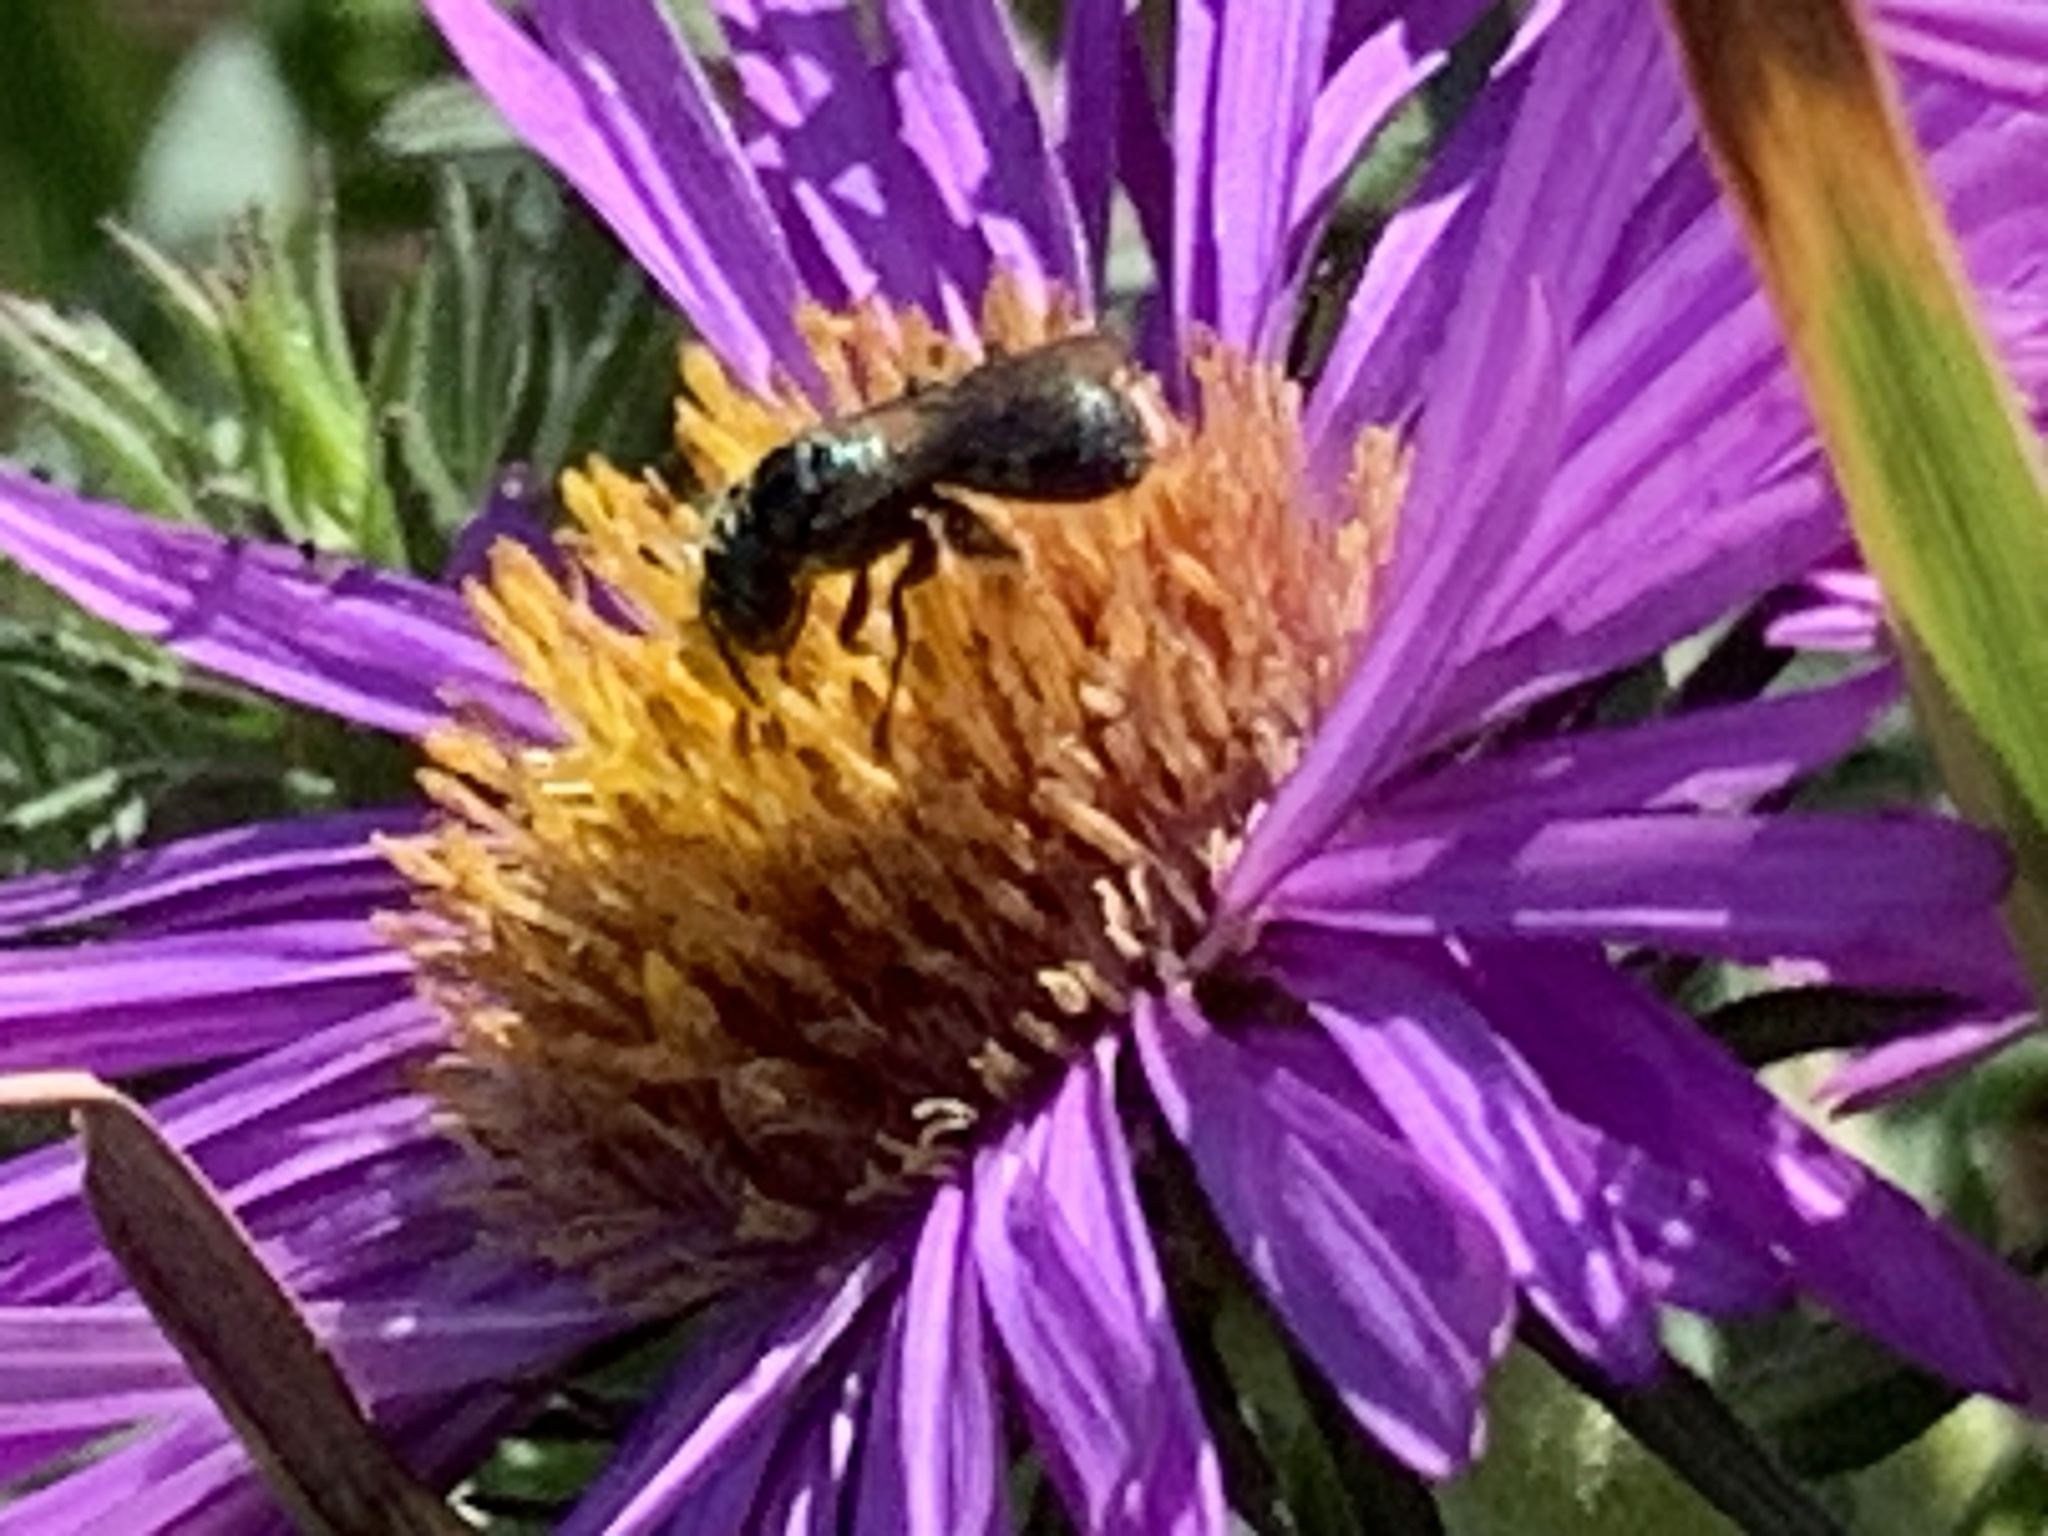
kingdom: Animalia
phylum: Arthropoda
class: Insecta
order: Hymenoptera
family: Apidae
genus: Zadontomerus
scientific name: Zadontomerus
